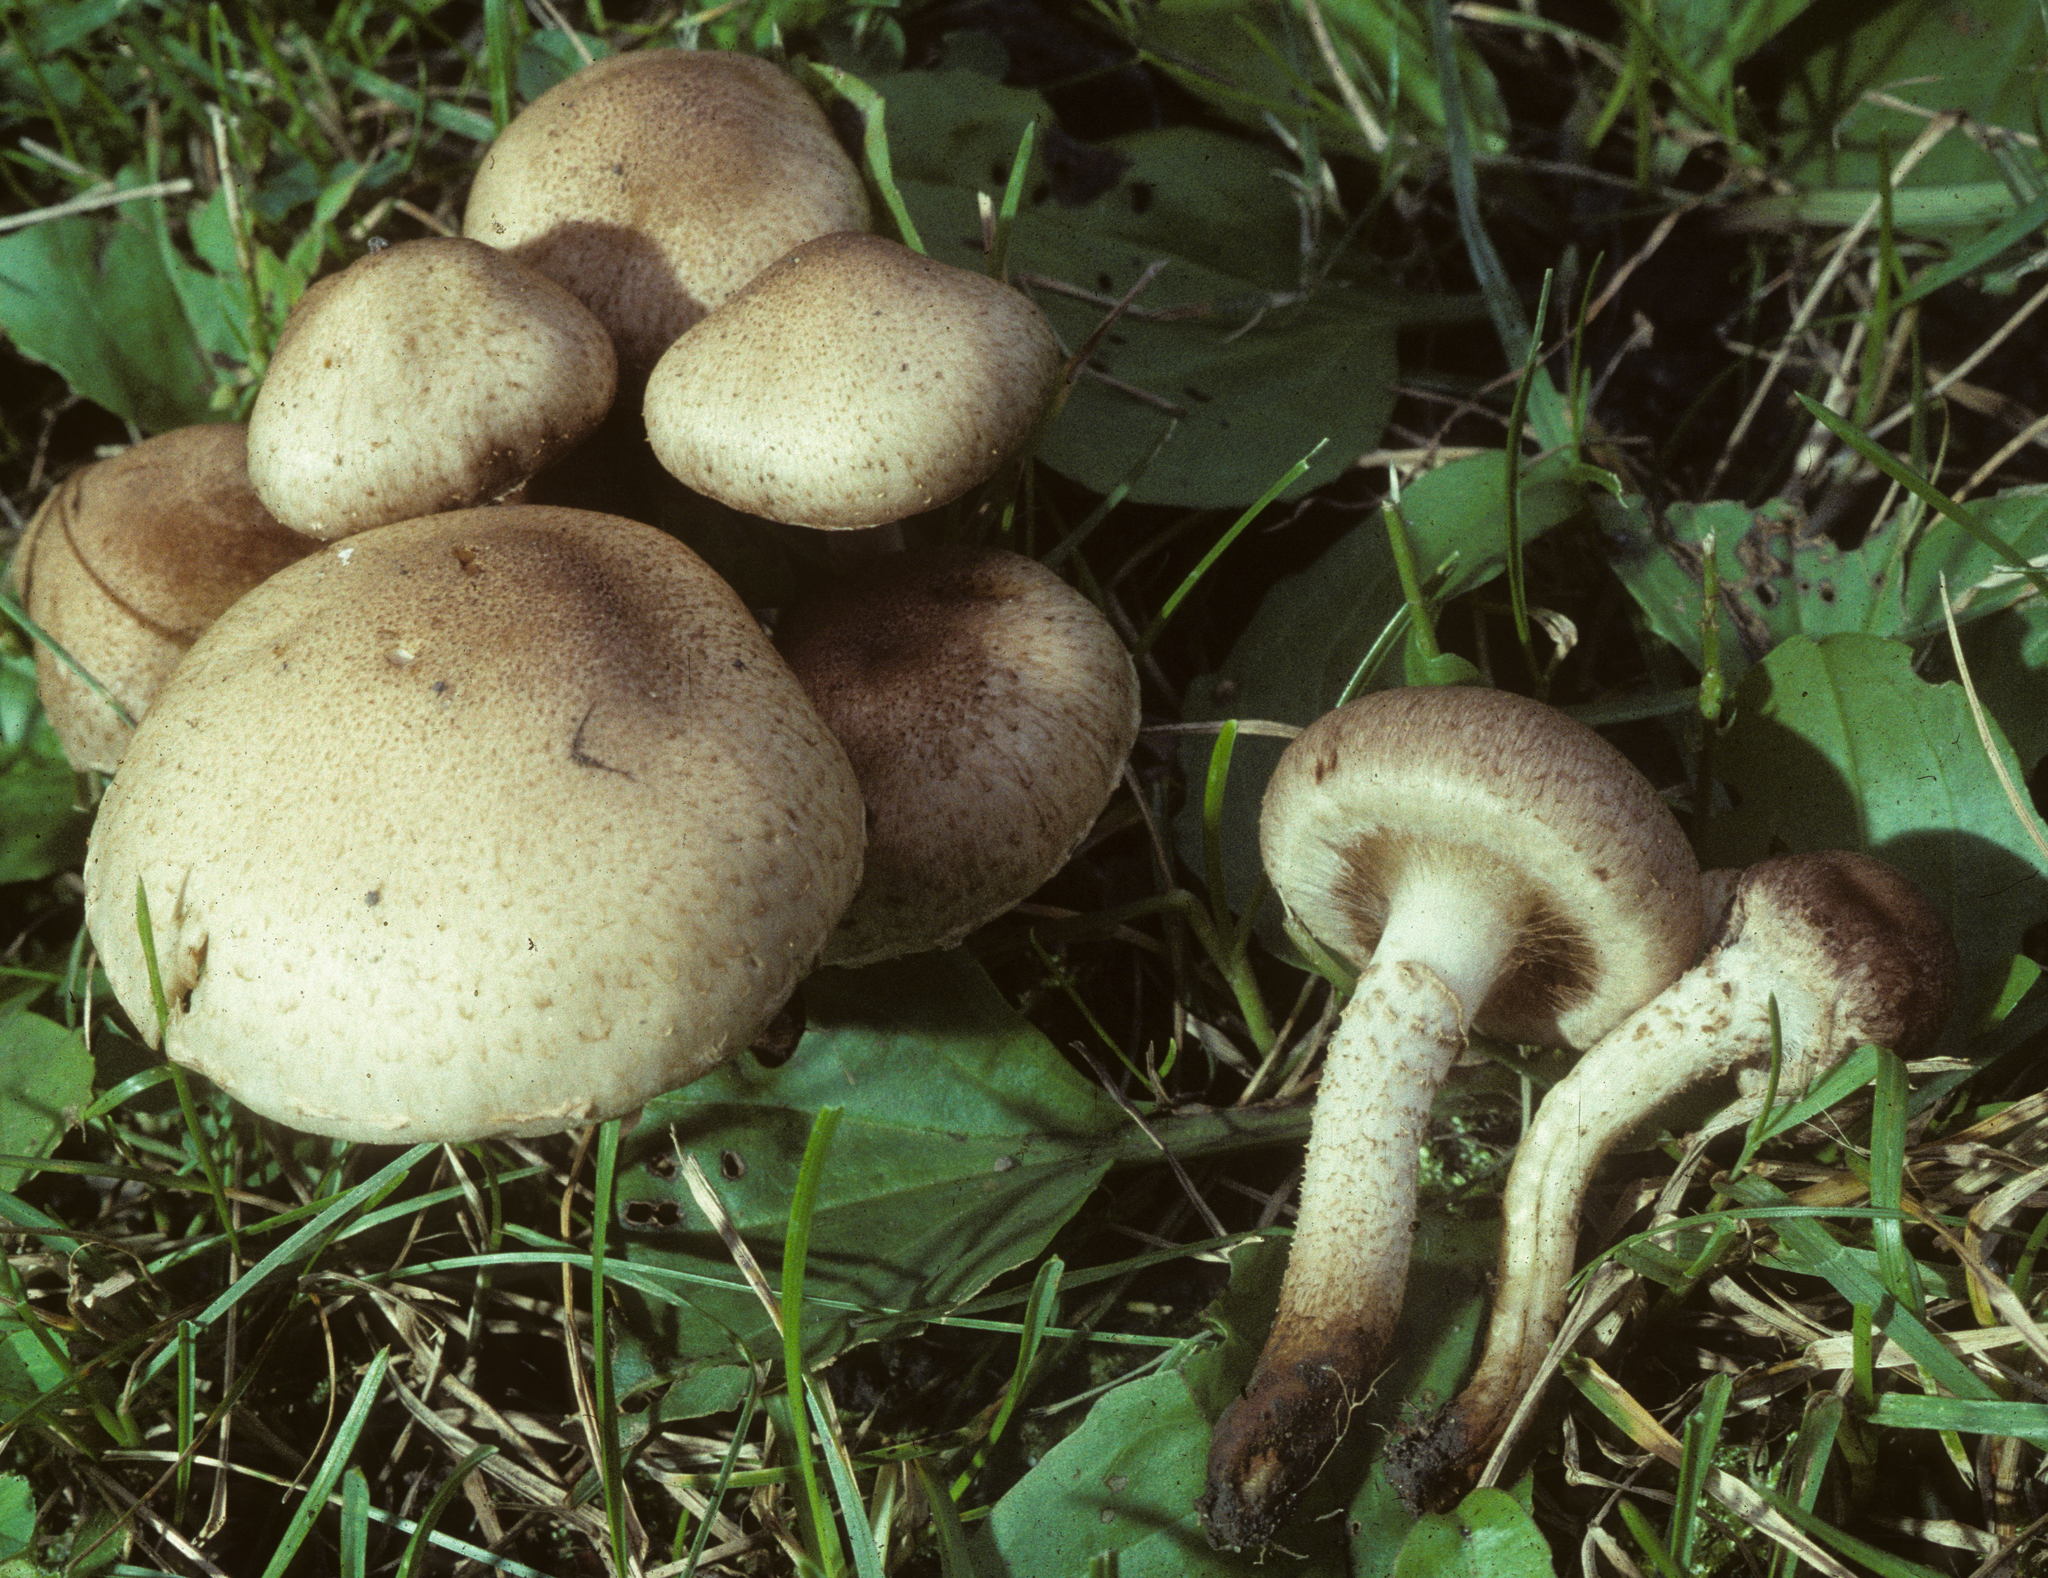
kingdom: Fungi
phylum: Basidiomycota
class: Agaricomycetes
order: Agaricales
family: Strophariaceae
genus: Pholiota
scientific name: Pholiota angustipes
